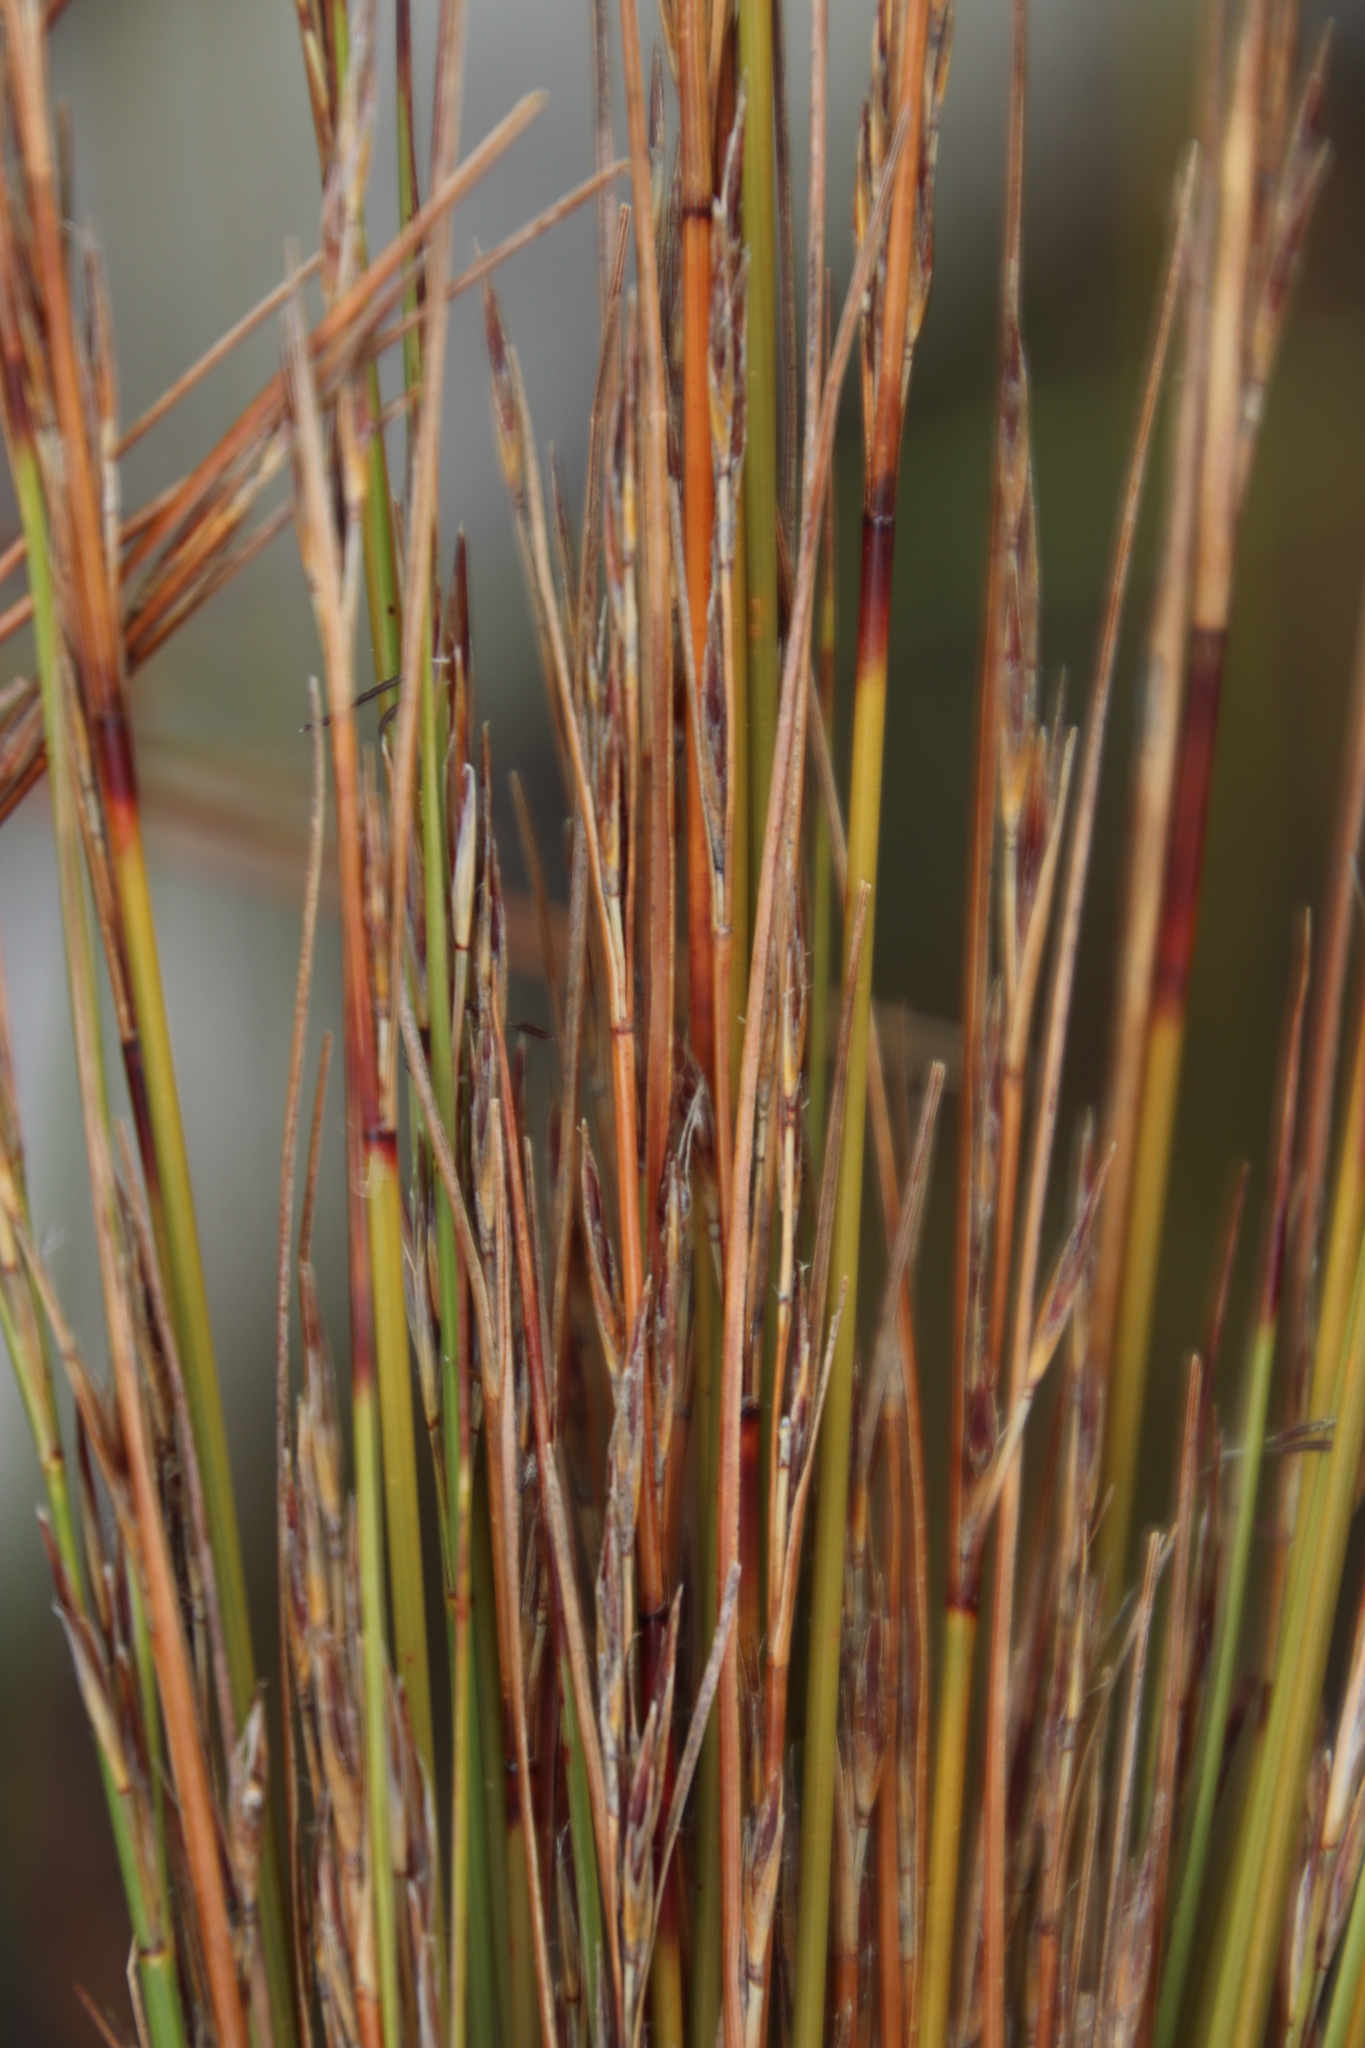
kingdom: Plantae
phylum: Tracheophyta
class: Liliopsida
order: Poales
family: Cyperaceae
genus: Schoenus
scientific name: Schoenus dregeanus
